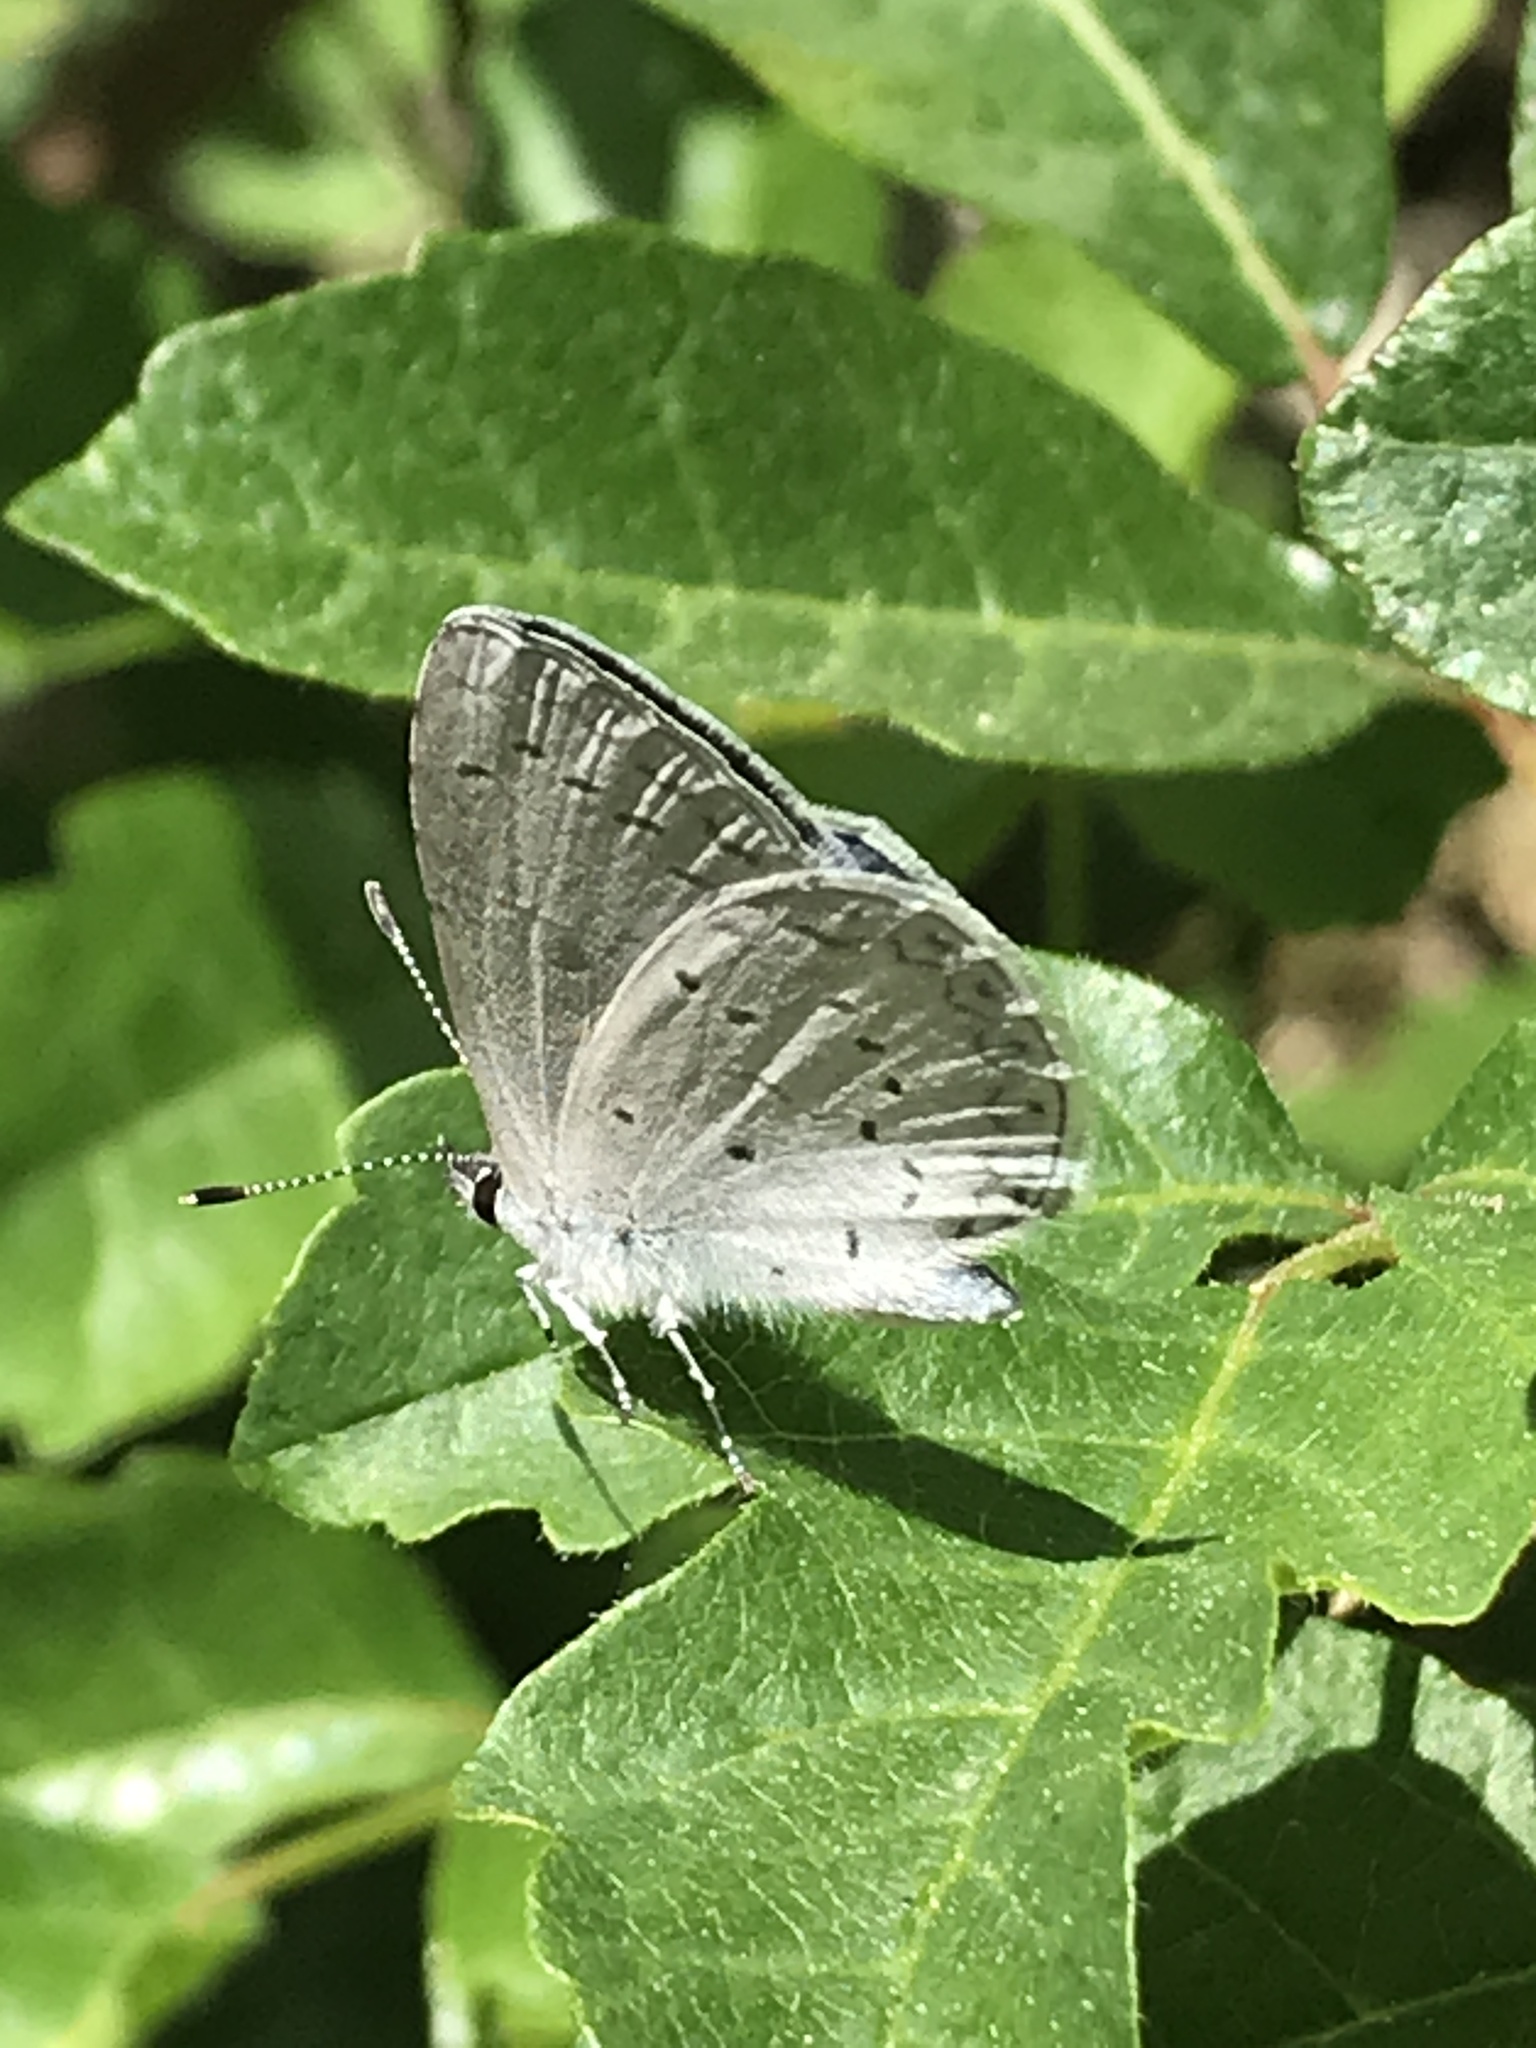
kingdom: Animalia
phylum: Arthropoda
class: Insecta
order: Lepidoptera
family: Lycaenidae
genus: Celastrina
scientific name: Celastrina ladon
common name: Spring azure
